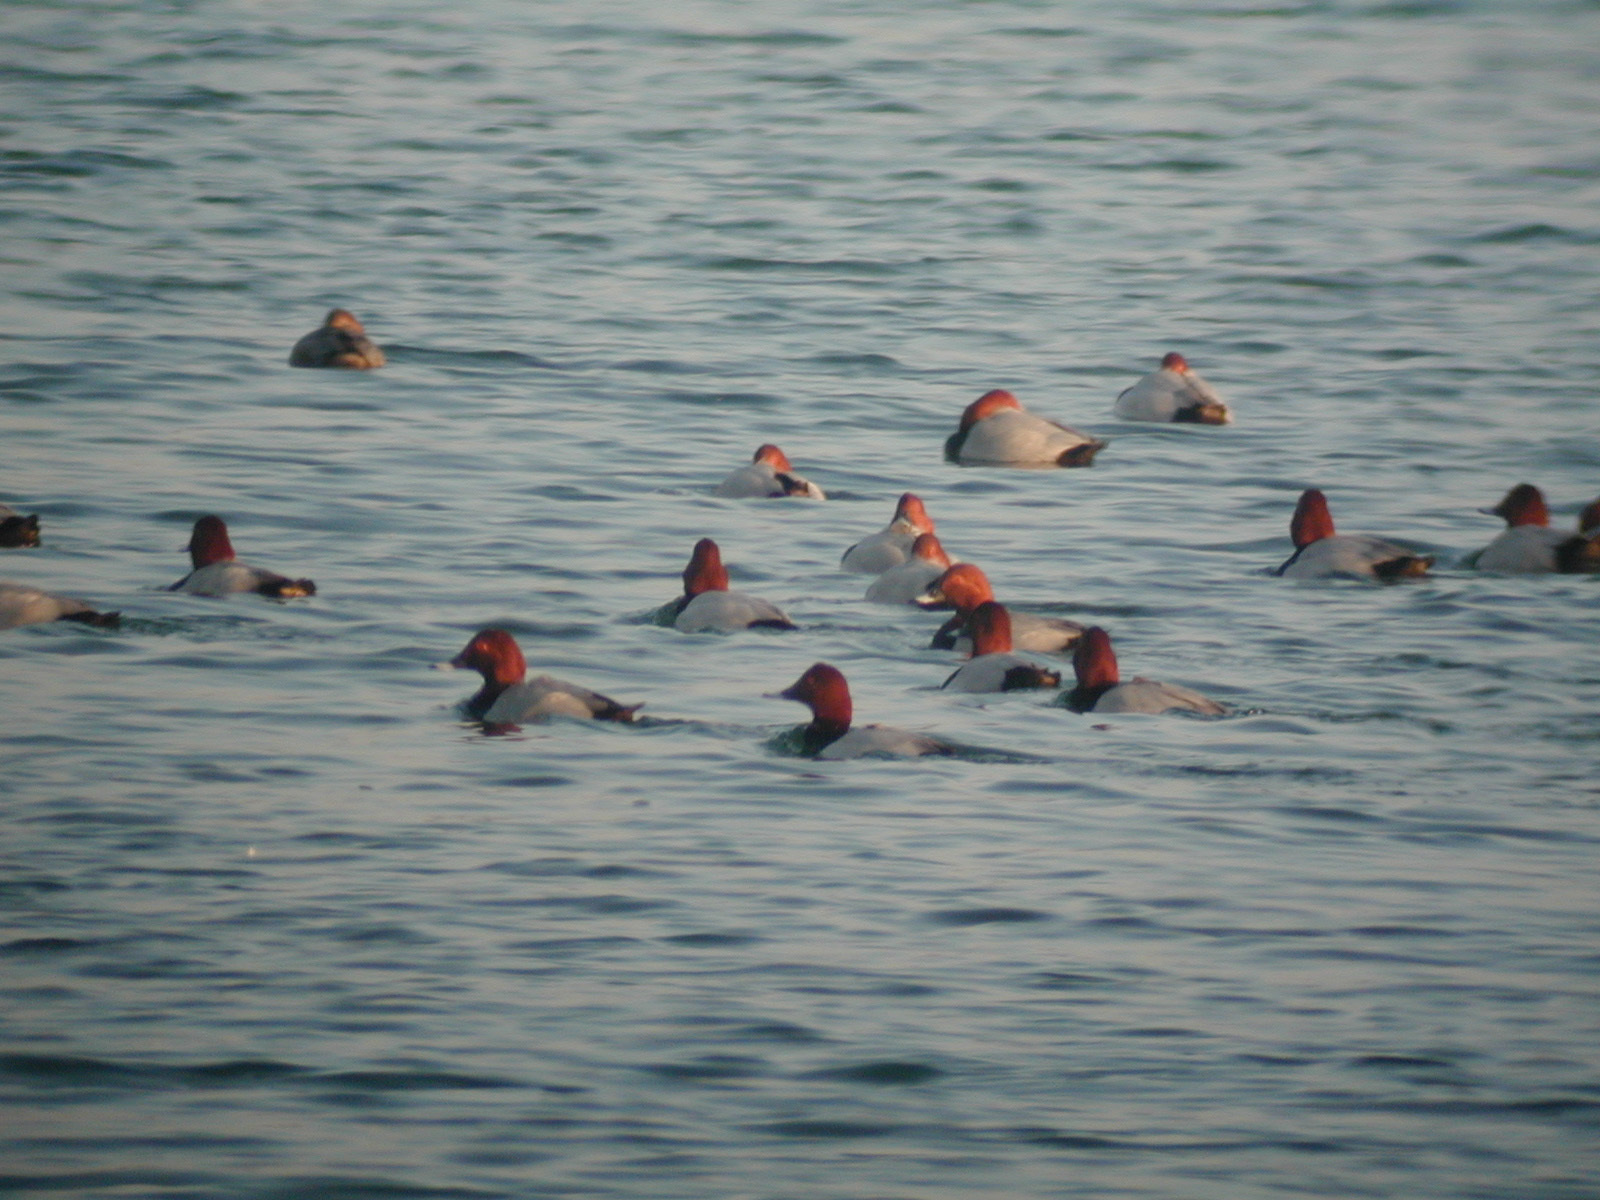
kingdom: Animalia
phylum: Chordata
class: Aves
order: Anseriformes
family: Anatidae
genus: Aythya
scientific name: Aythya ferina
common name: Common pochard
